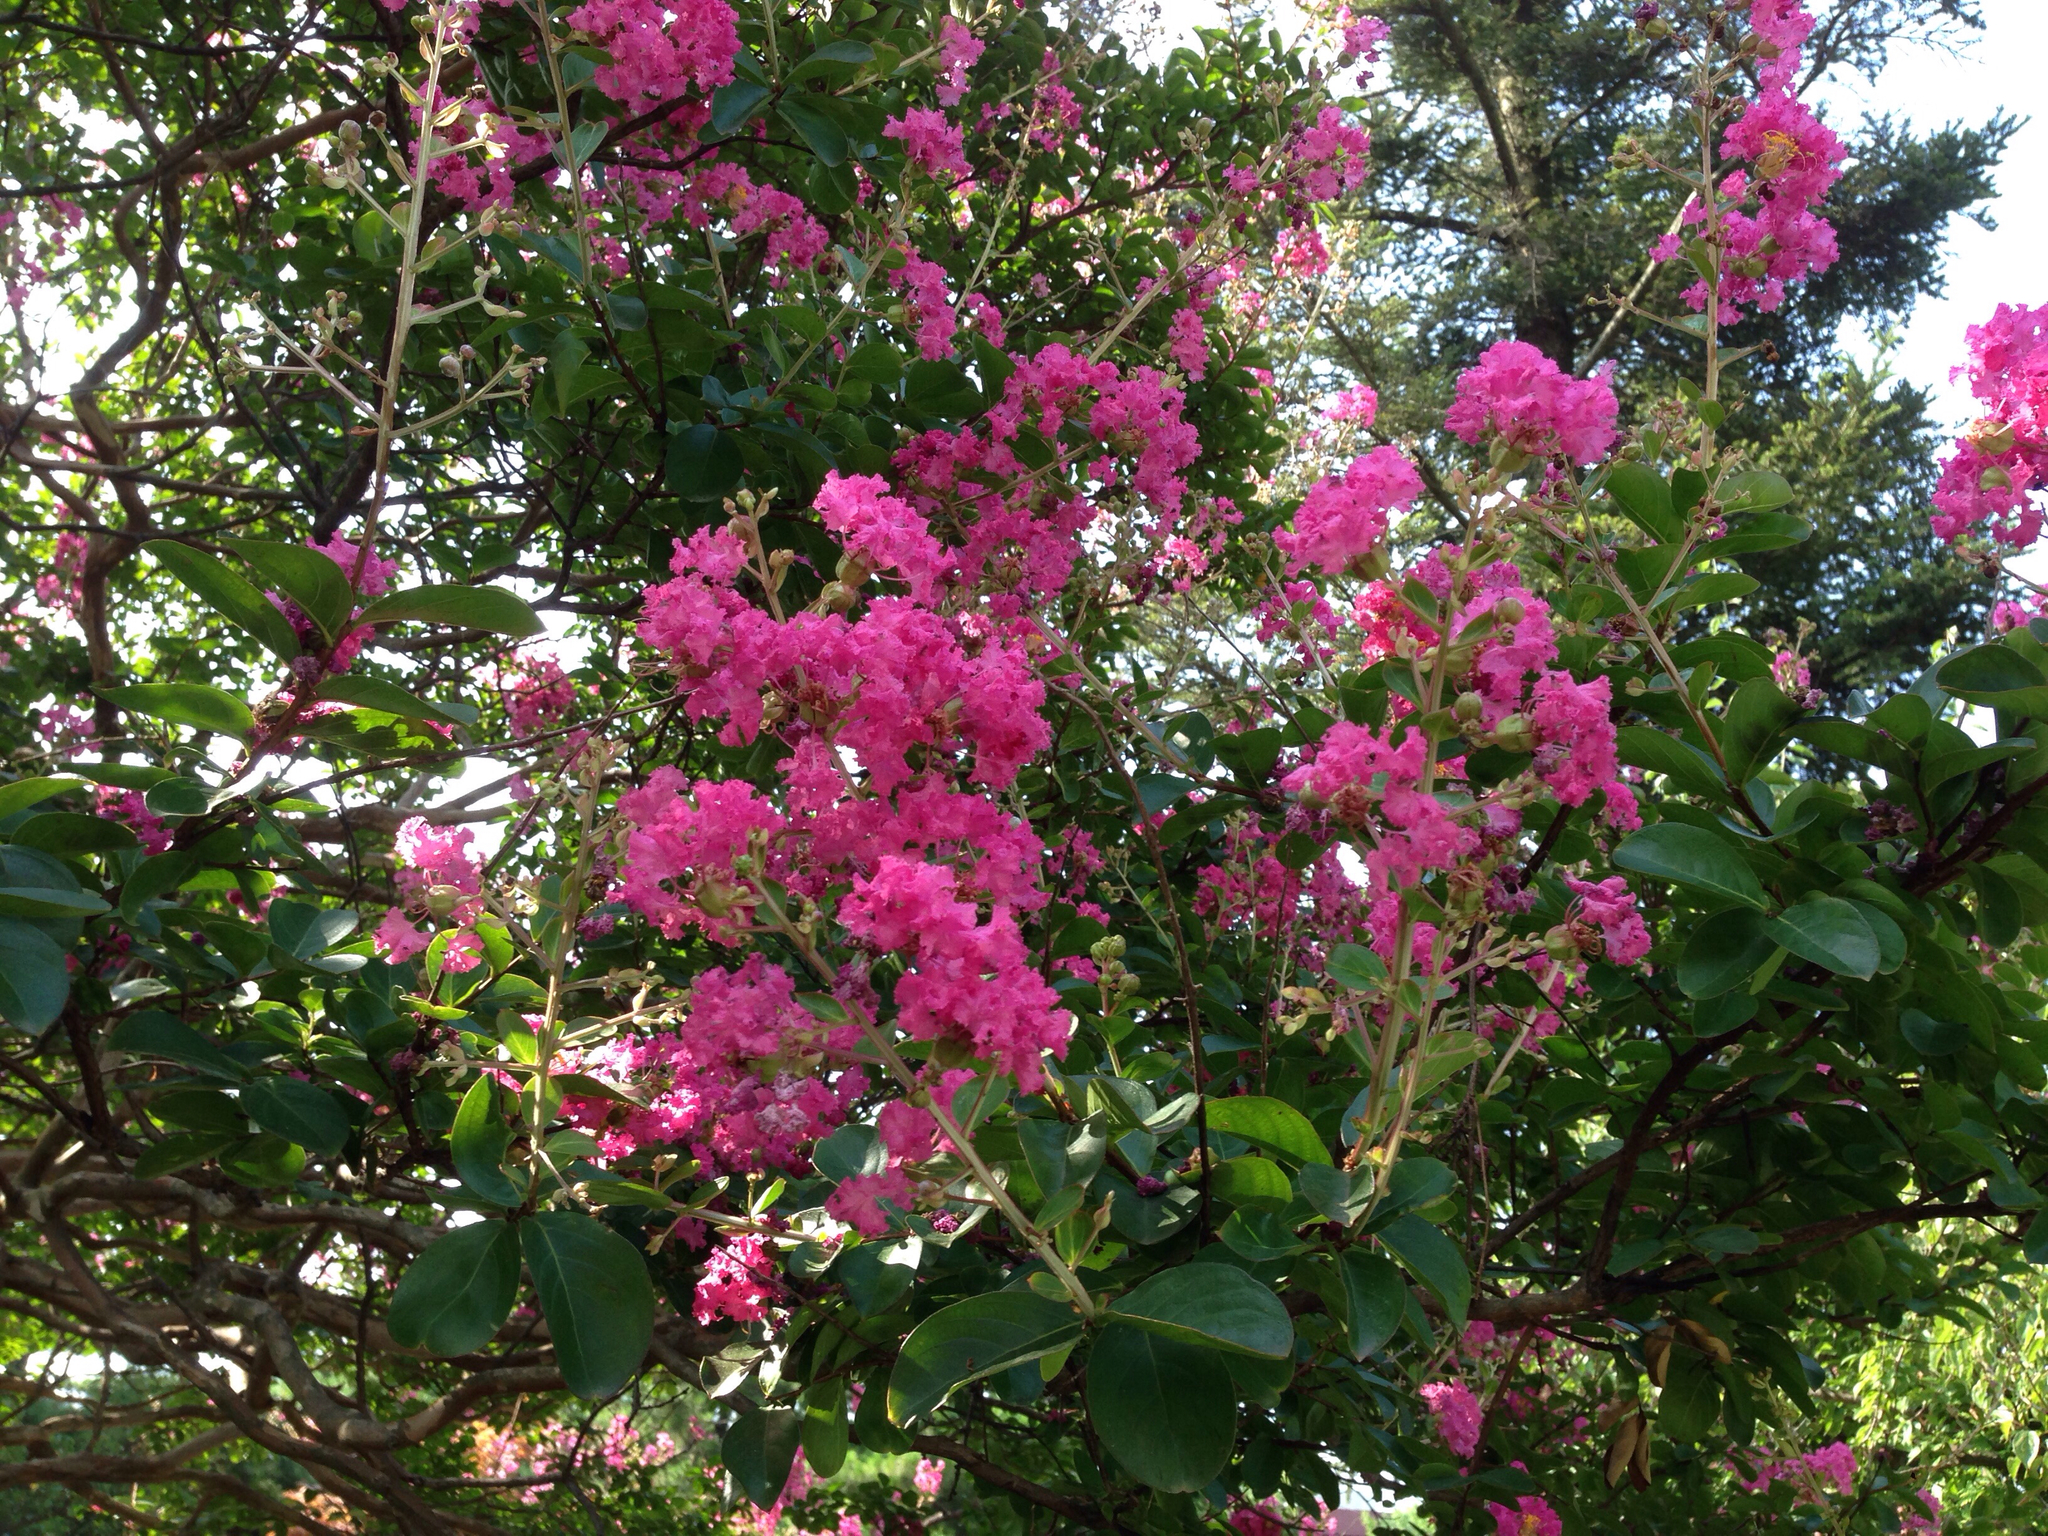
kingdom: Plantae
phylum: Tracheophyta
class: Magnoliopsida
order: Myrtales
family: Lythraceae
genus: Lagerstroemia
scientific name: Lagerstroemia indica
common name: Crape-myrtle
